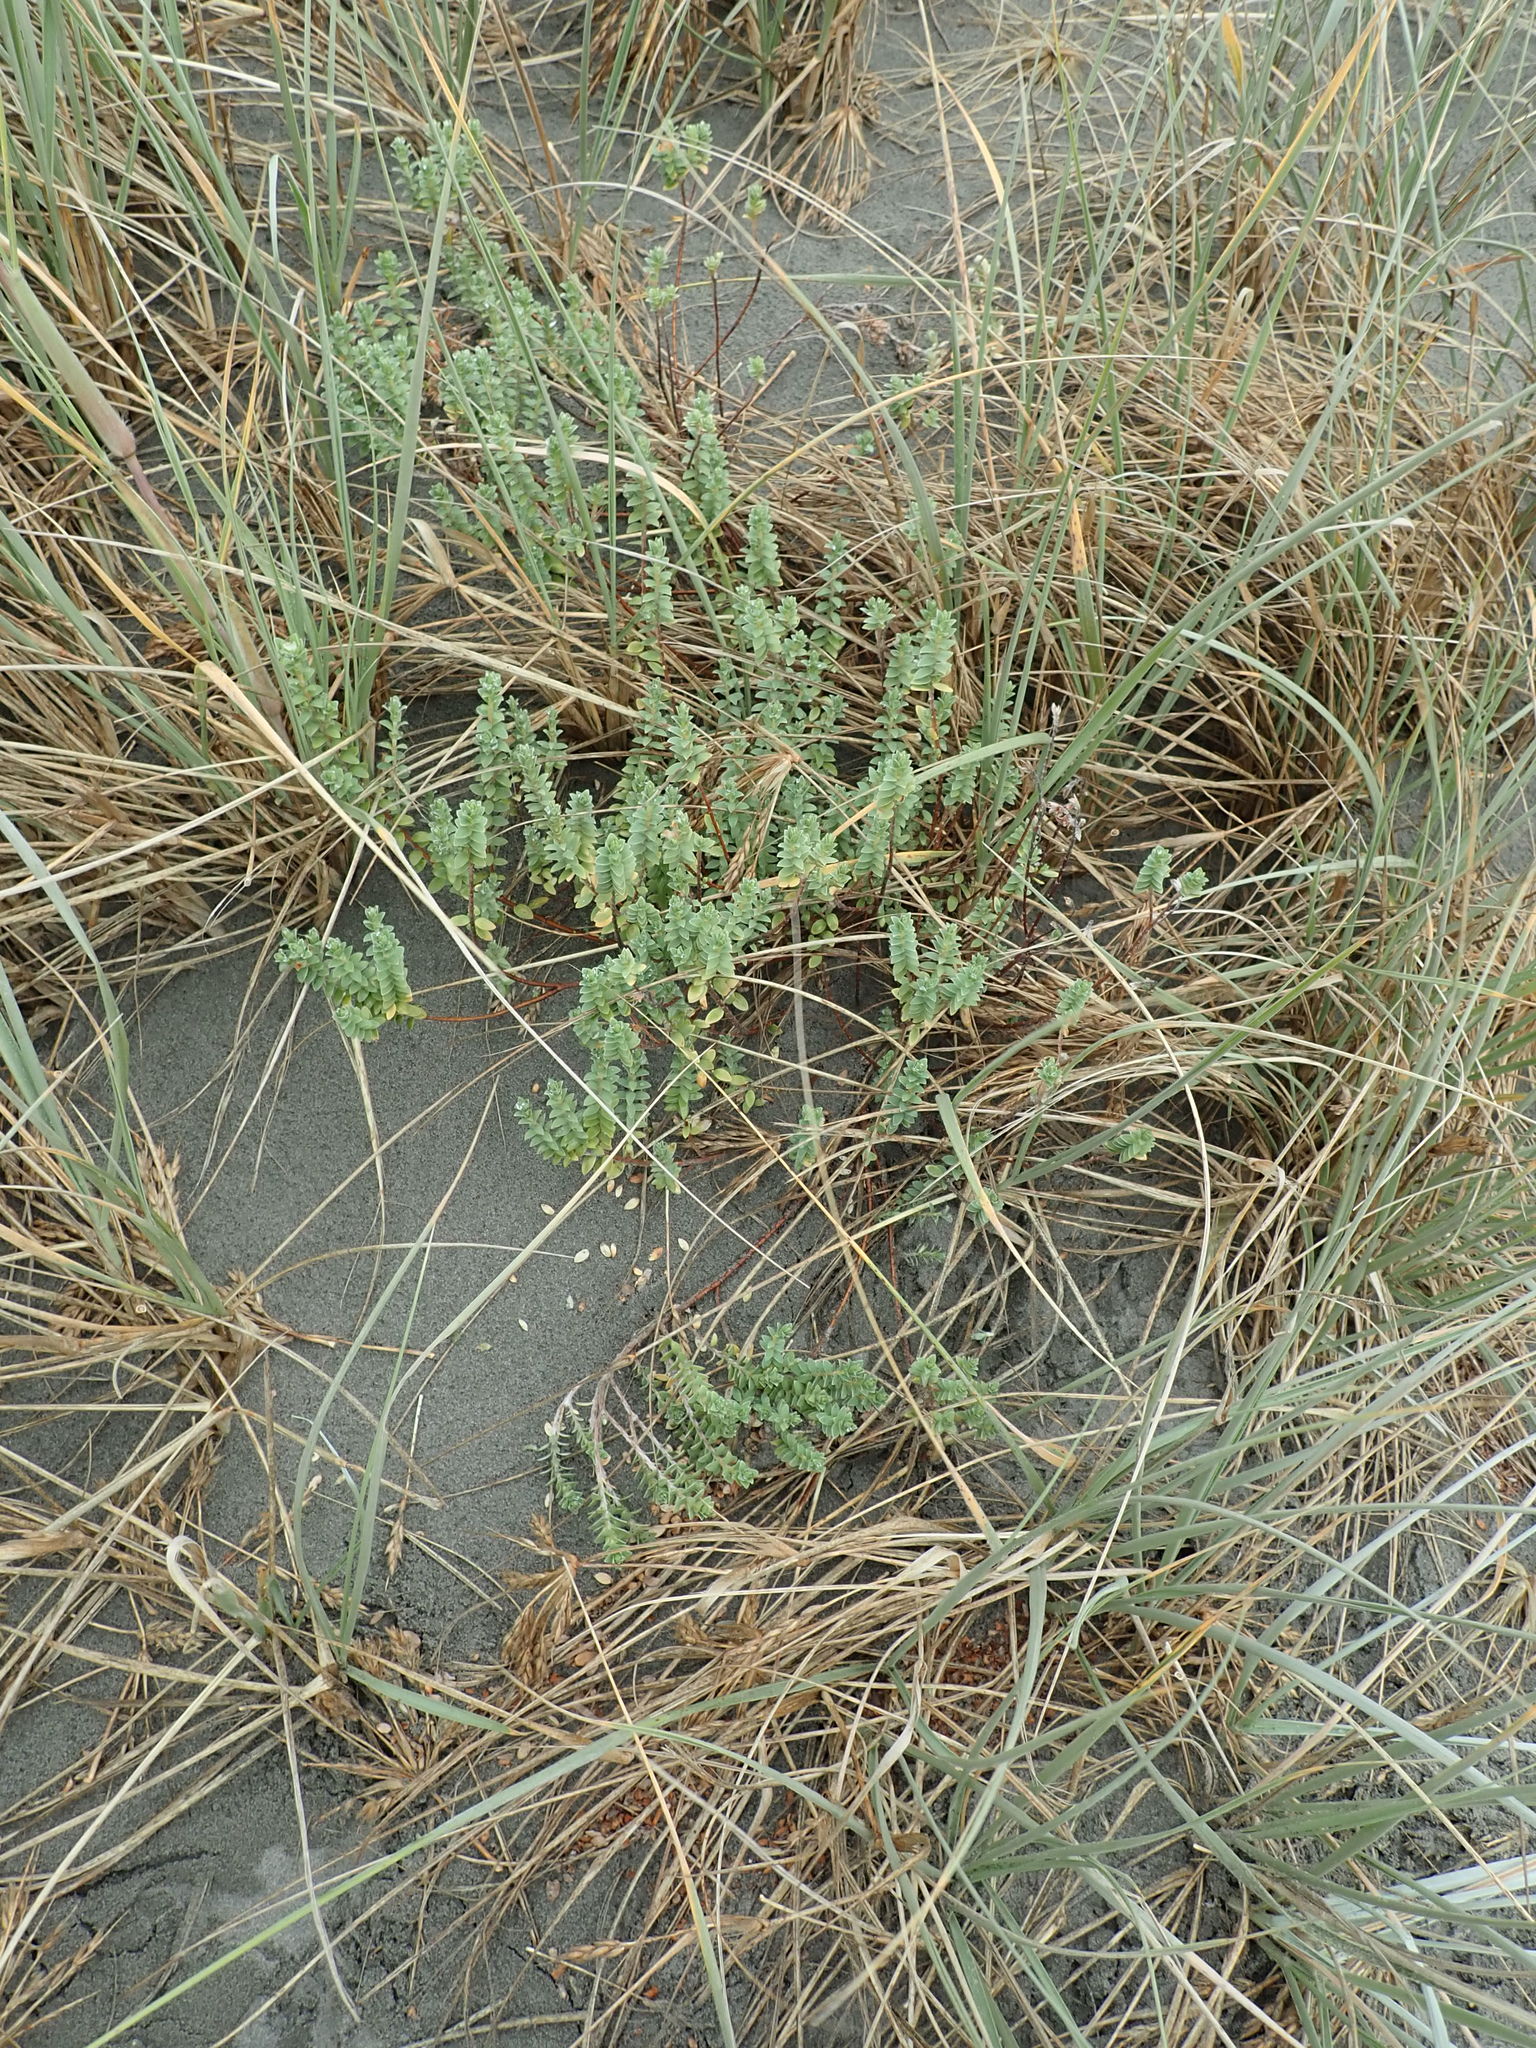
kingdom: Plantae
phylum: Tracheophyta
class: Magnoliopsida
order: Malvales
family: Thymelaeaceae
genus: Pimelea
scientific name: Pimelea villosa
